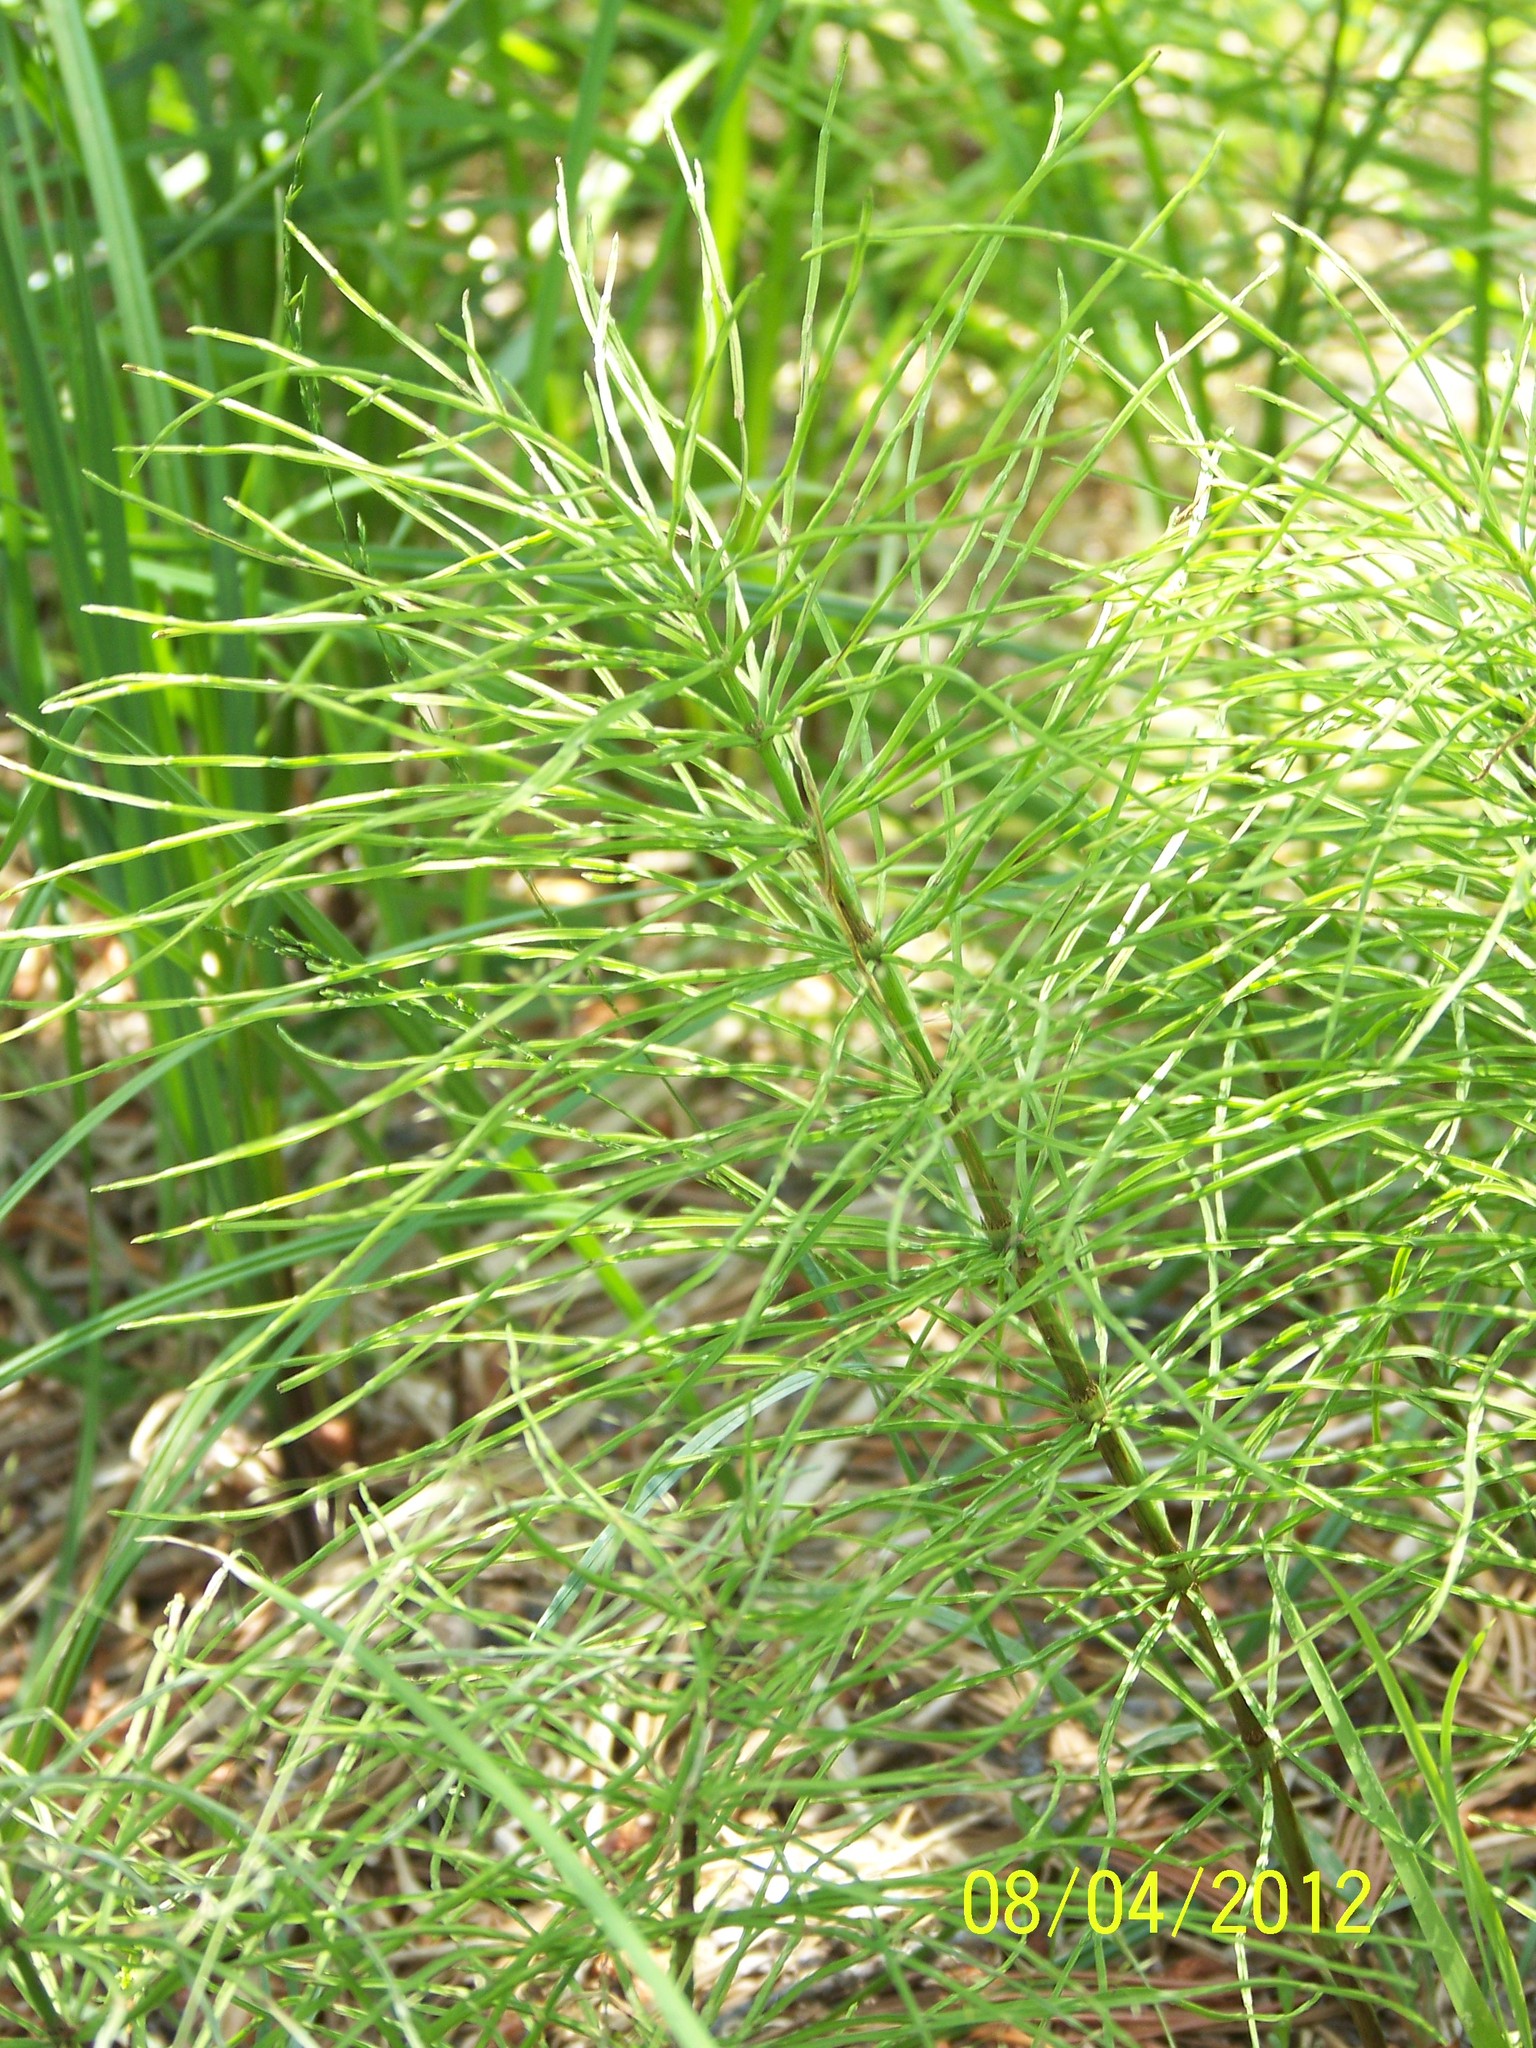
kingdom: Plantae
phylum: Tracheophyta
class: Polypodiopsida
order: Equisetales
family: Equisetaceae
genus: Equisetum
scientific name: Equisetum arvense
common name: Field horsetail
